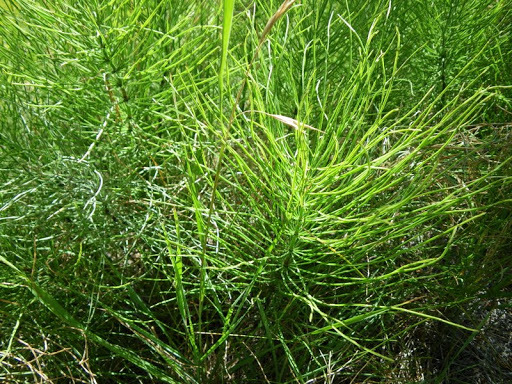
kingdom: Plantae
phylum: Tracheophyta
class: Polypodiopsida
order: Equisetales
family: Equisetaceae
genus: Equisetum
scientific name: Equisetum arvense
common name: Field horsetail
